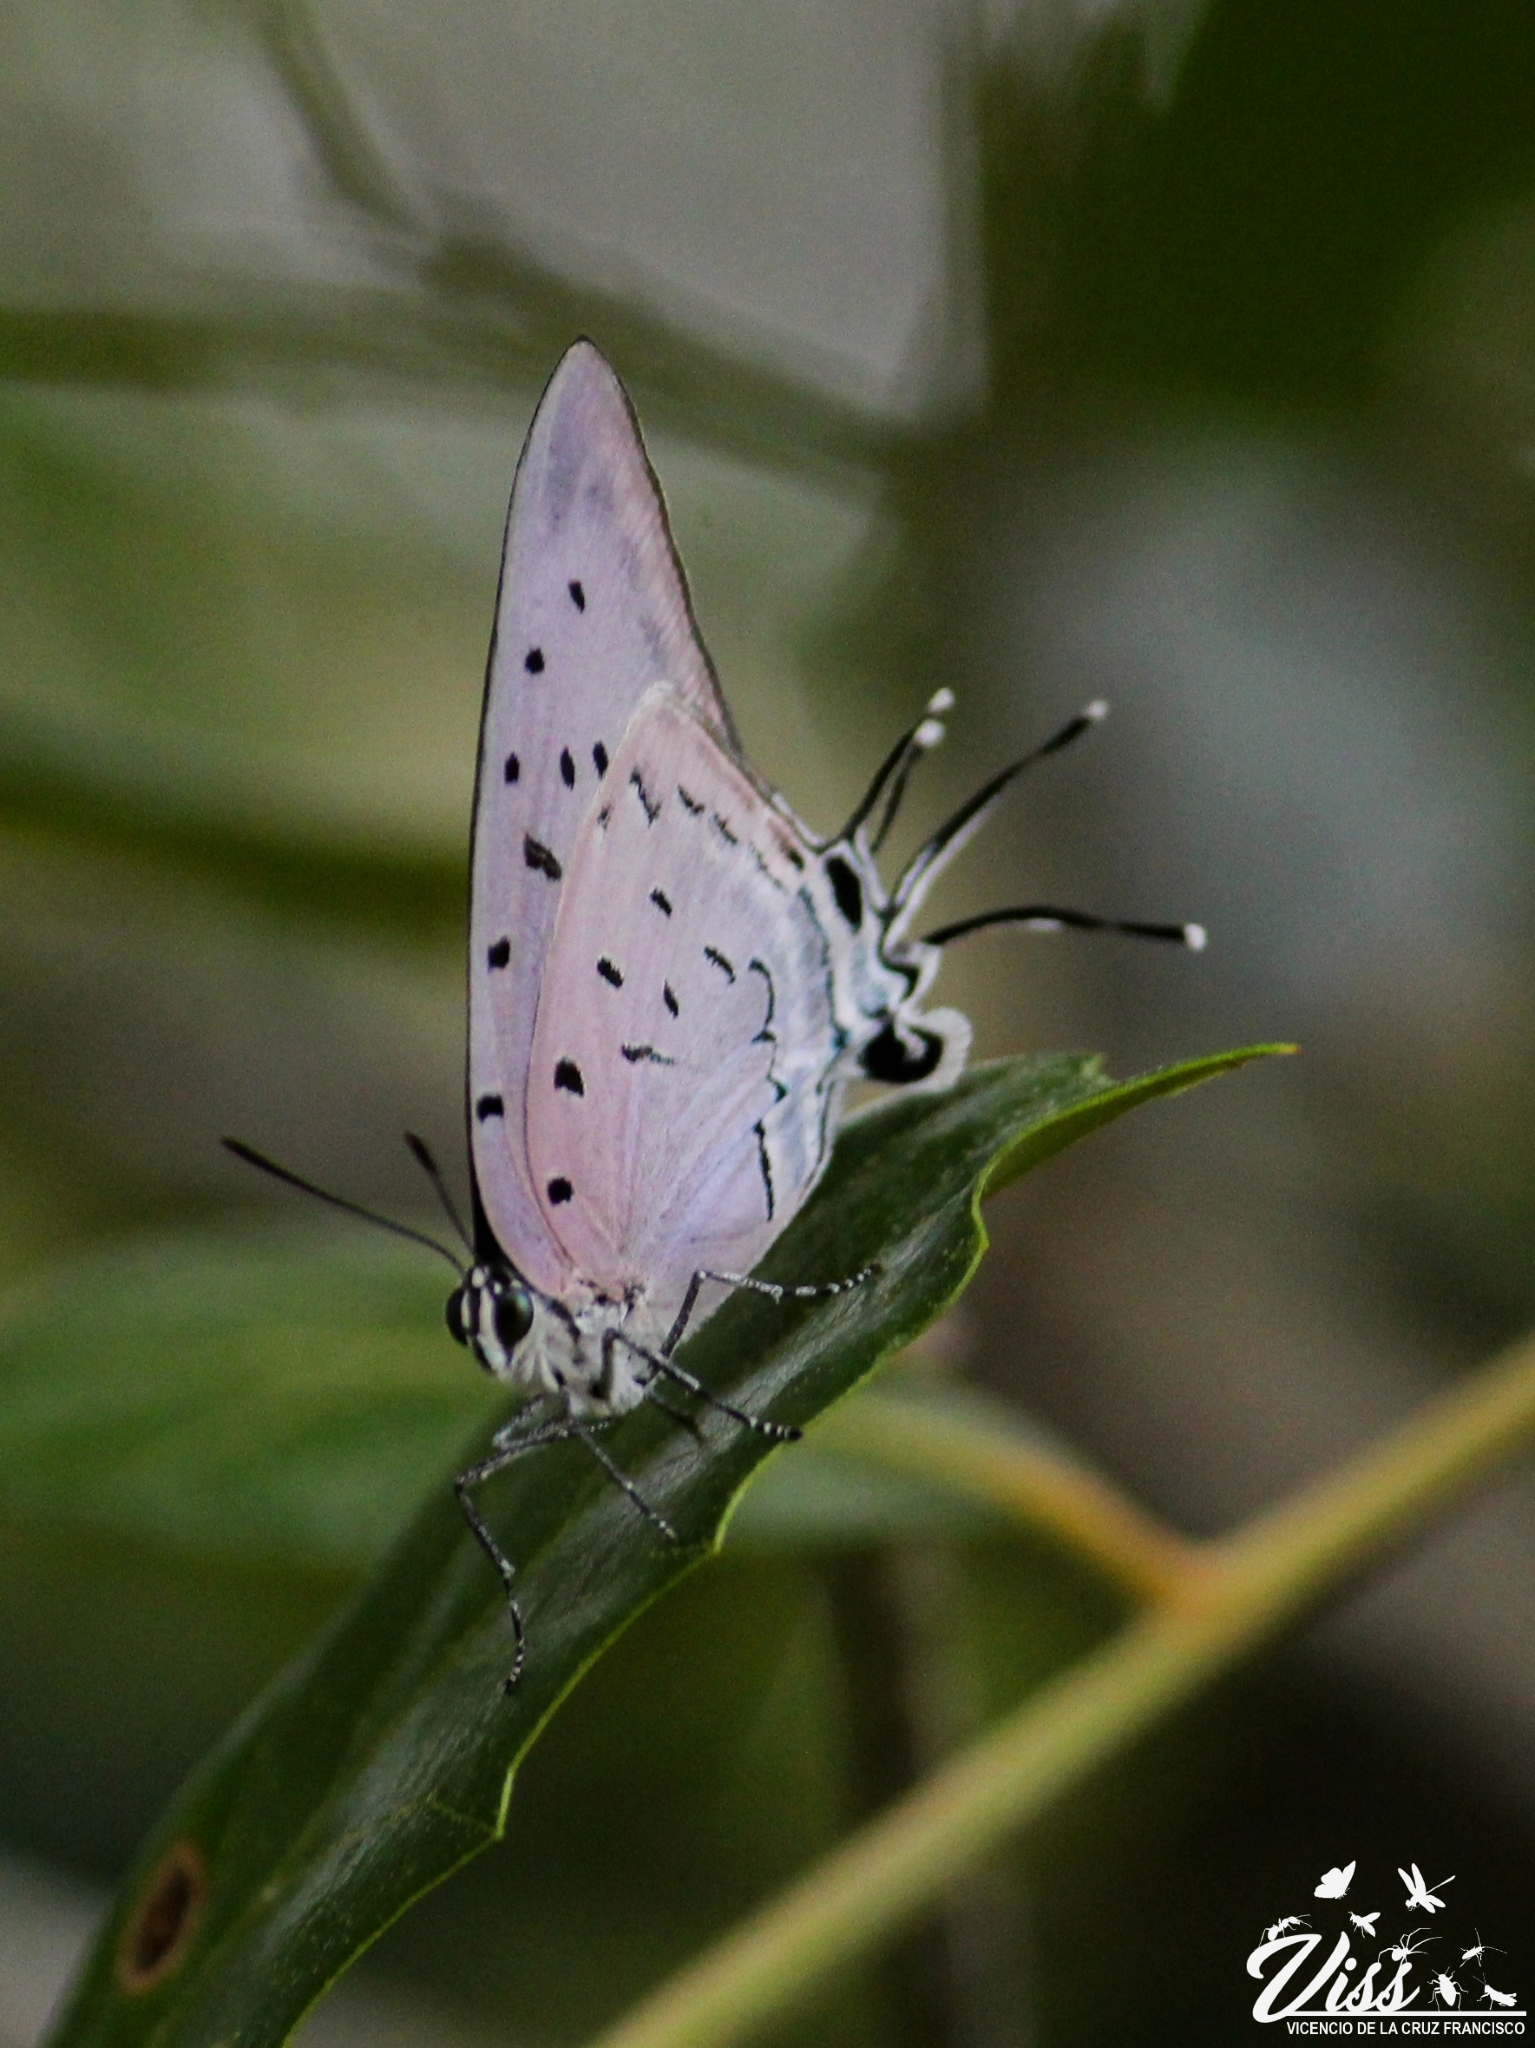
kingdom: Animalia
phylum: Arthropoda
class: Insecta
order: Lepidoptera
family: Lycaenidae
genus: Pseudolycaena
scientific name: Pseudolycaena damo
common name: Sky-blue hairstreak
